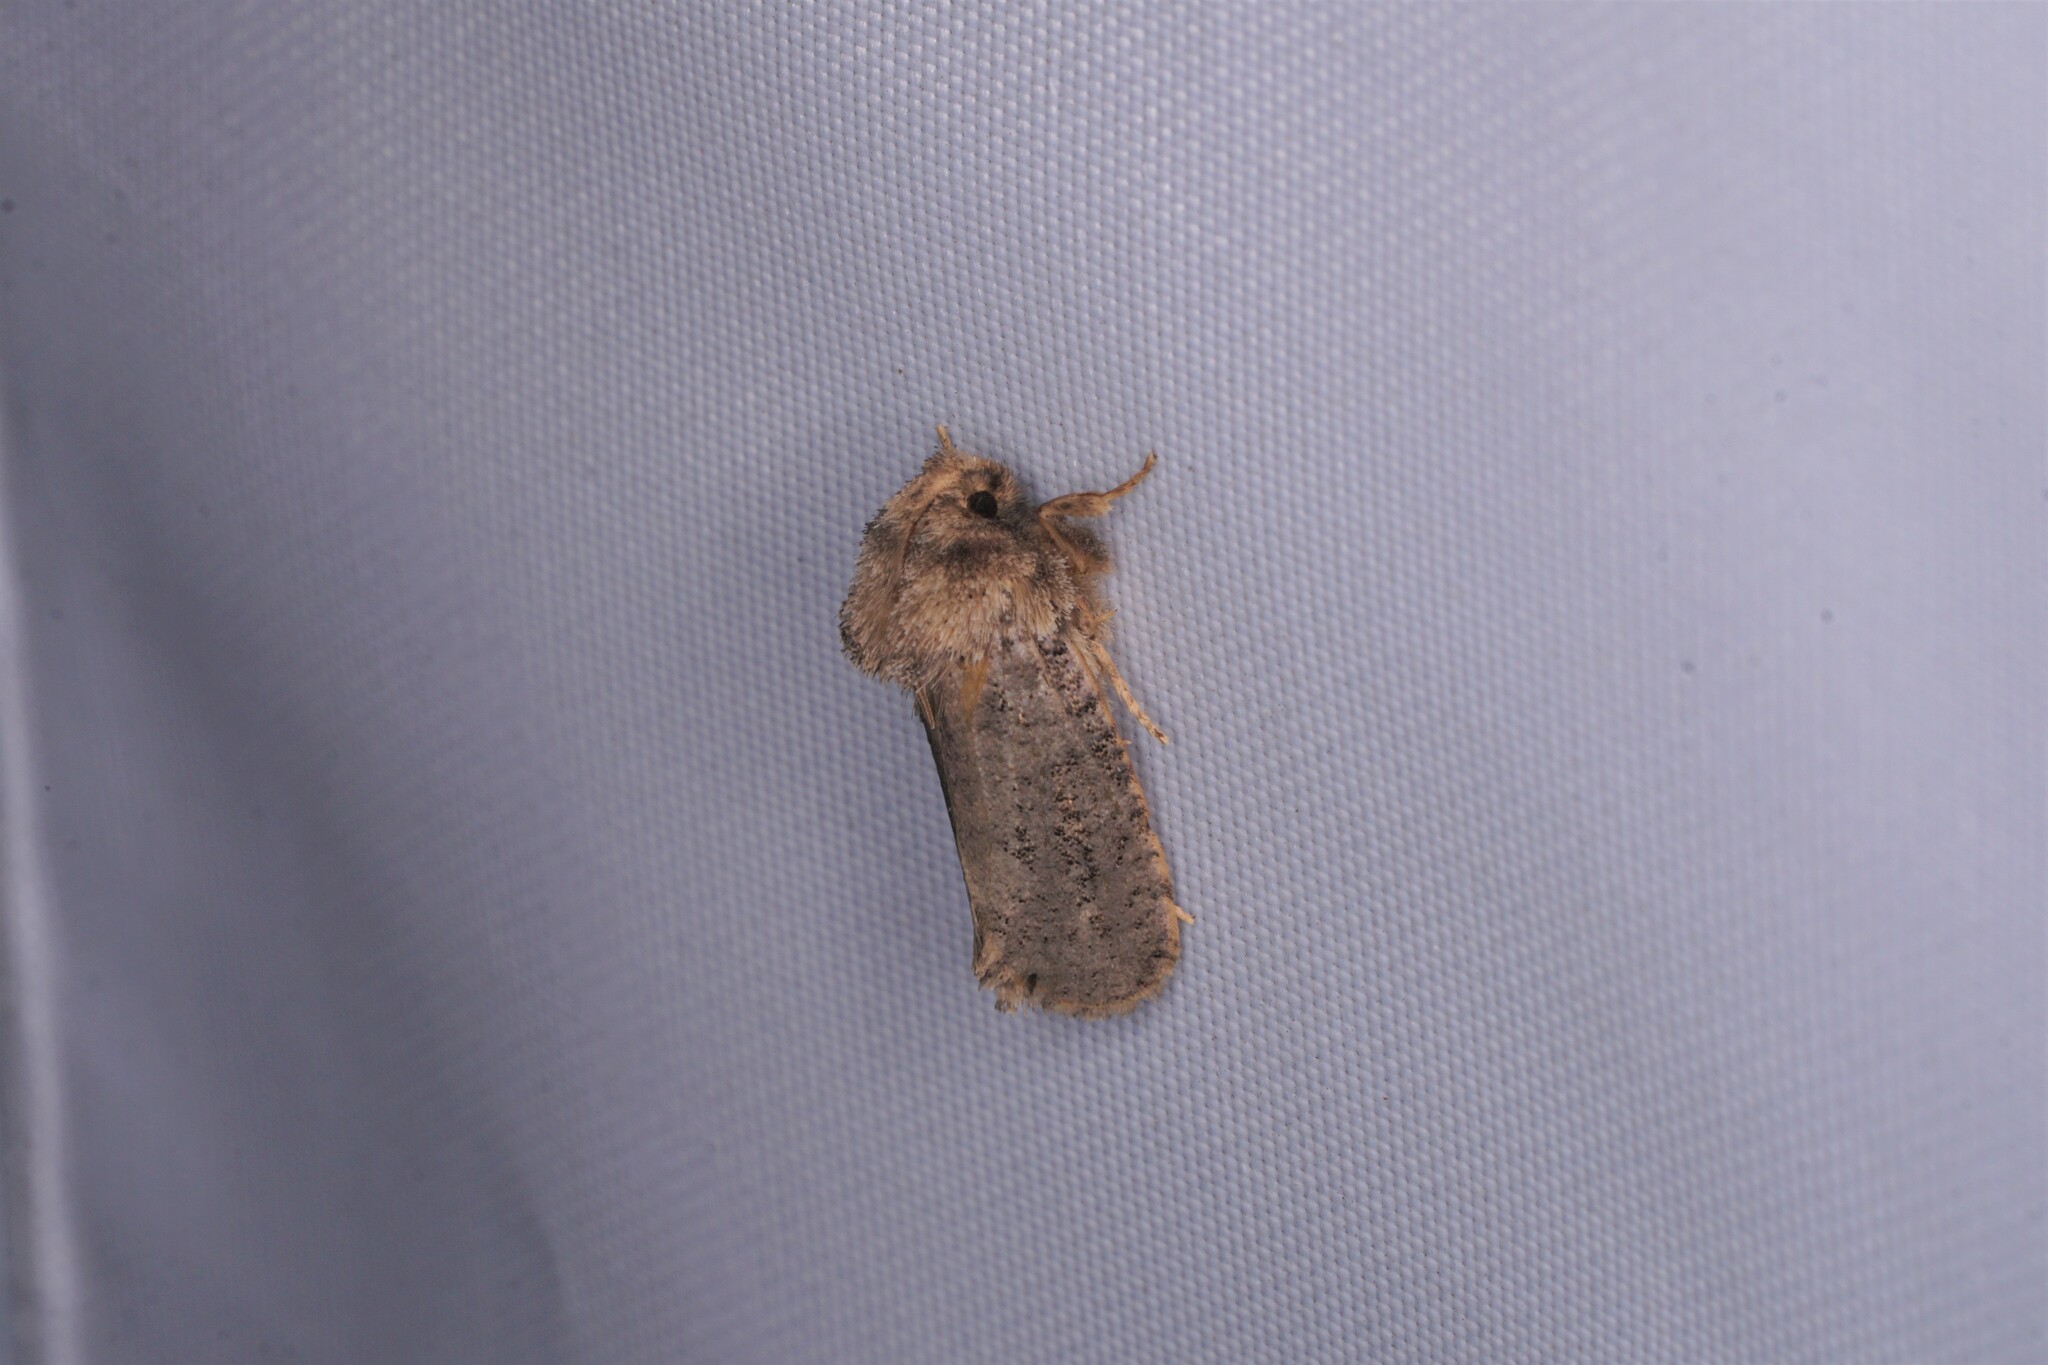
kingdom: Animalia
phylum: Arthropoda
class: Insecta
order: Lepidoptera
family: Tineidae
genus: Acrolophus
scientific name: Acrolophus arcanella
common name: Arcane grass tubeworm moth
